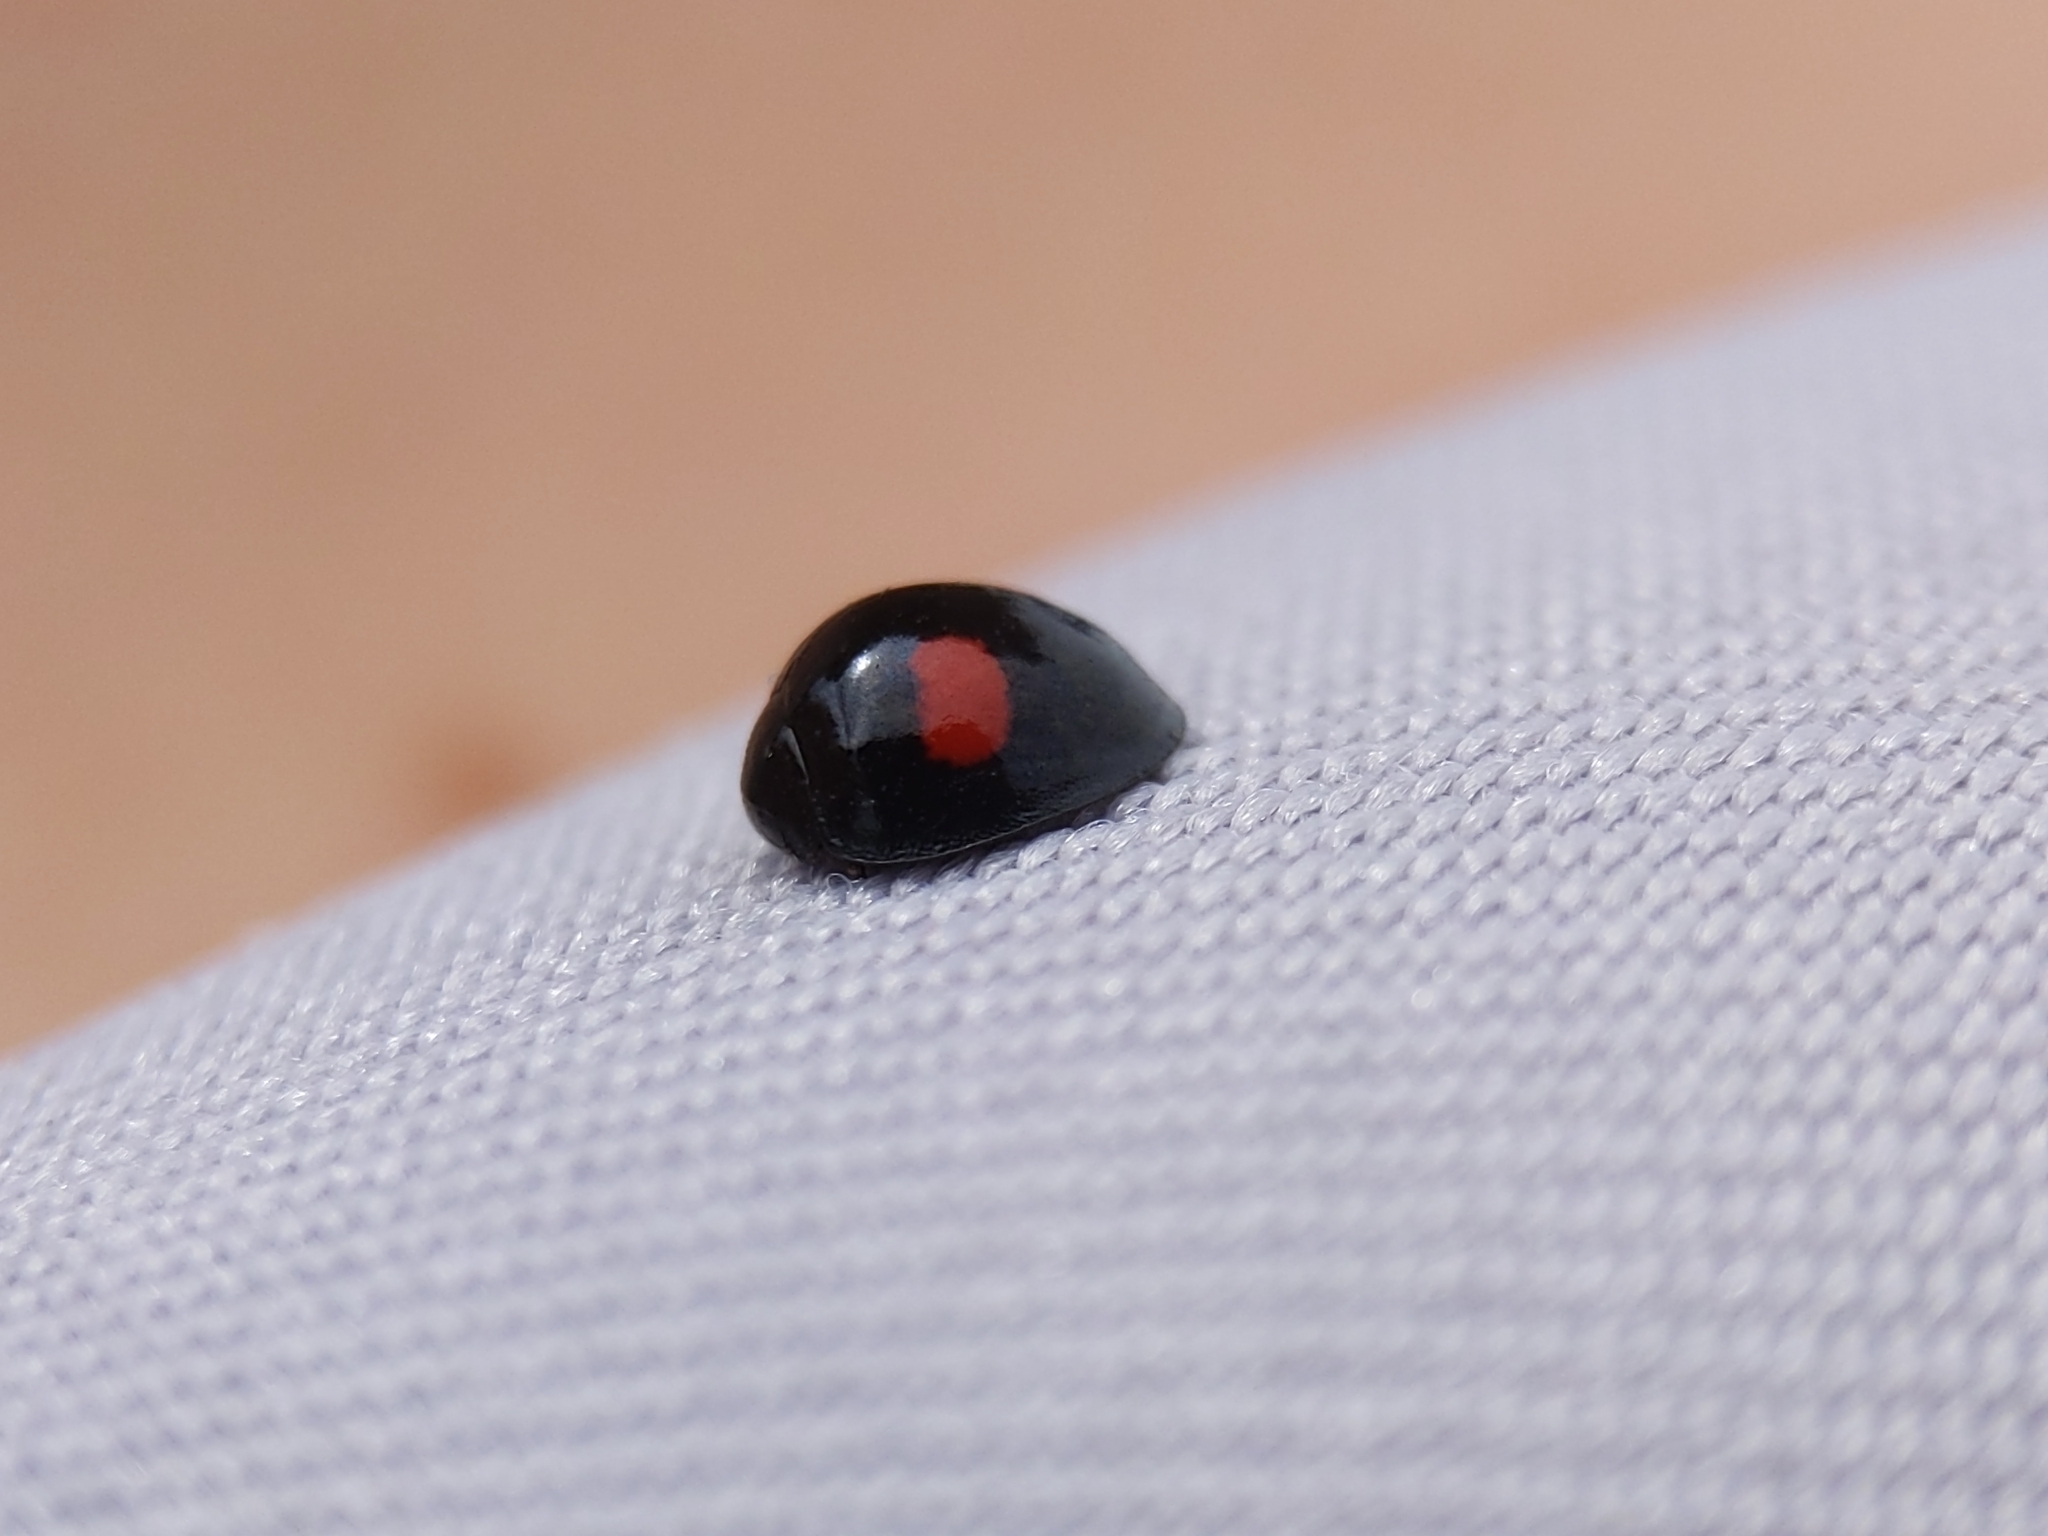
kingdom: Animalia
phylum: Arthropoda
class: Insecta
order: Coleoptera
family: Coccinellidae
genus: Chilocorus
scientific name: Chilocorus renipustulatus
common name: Kidney-spot ladybird
